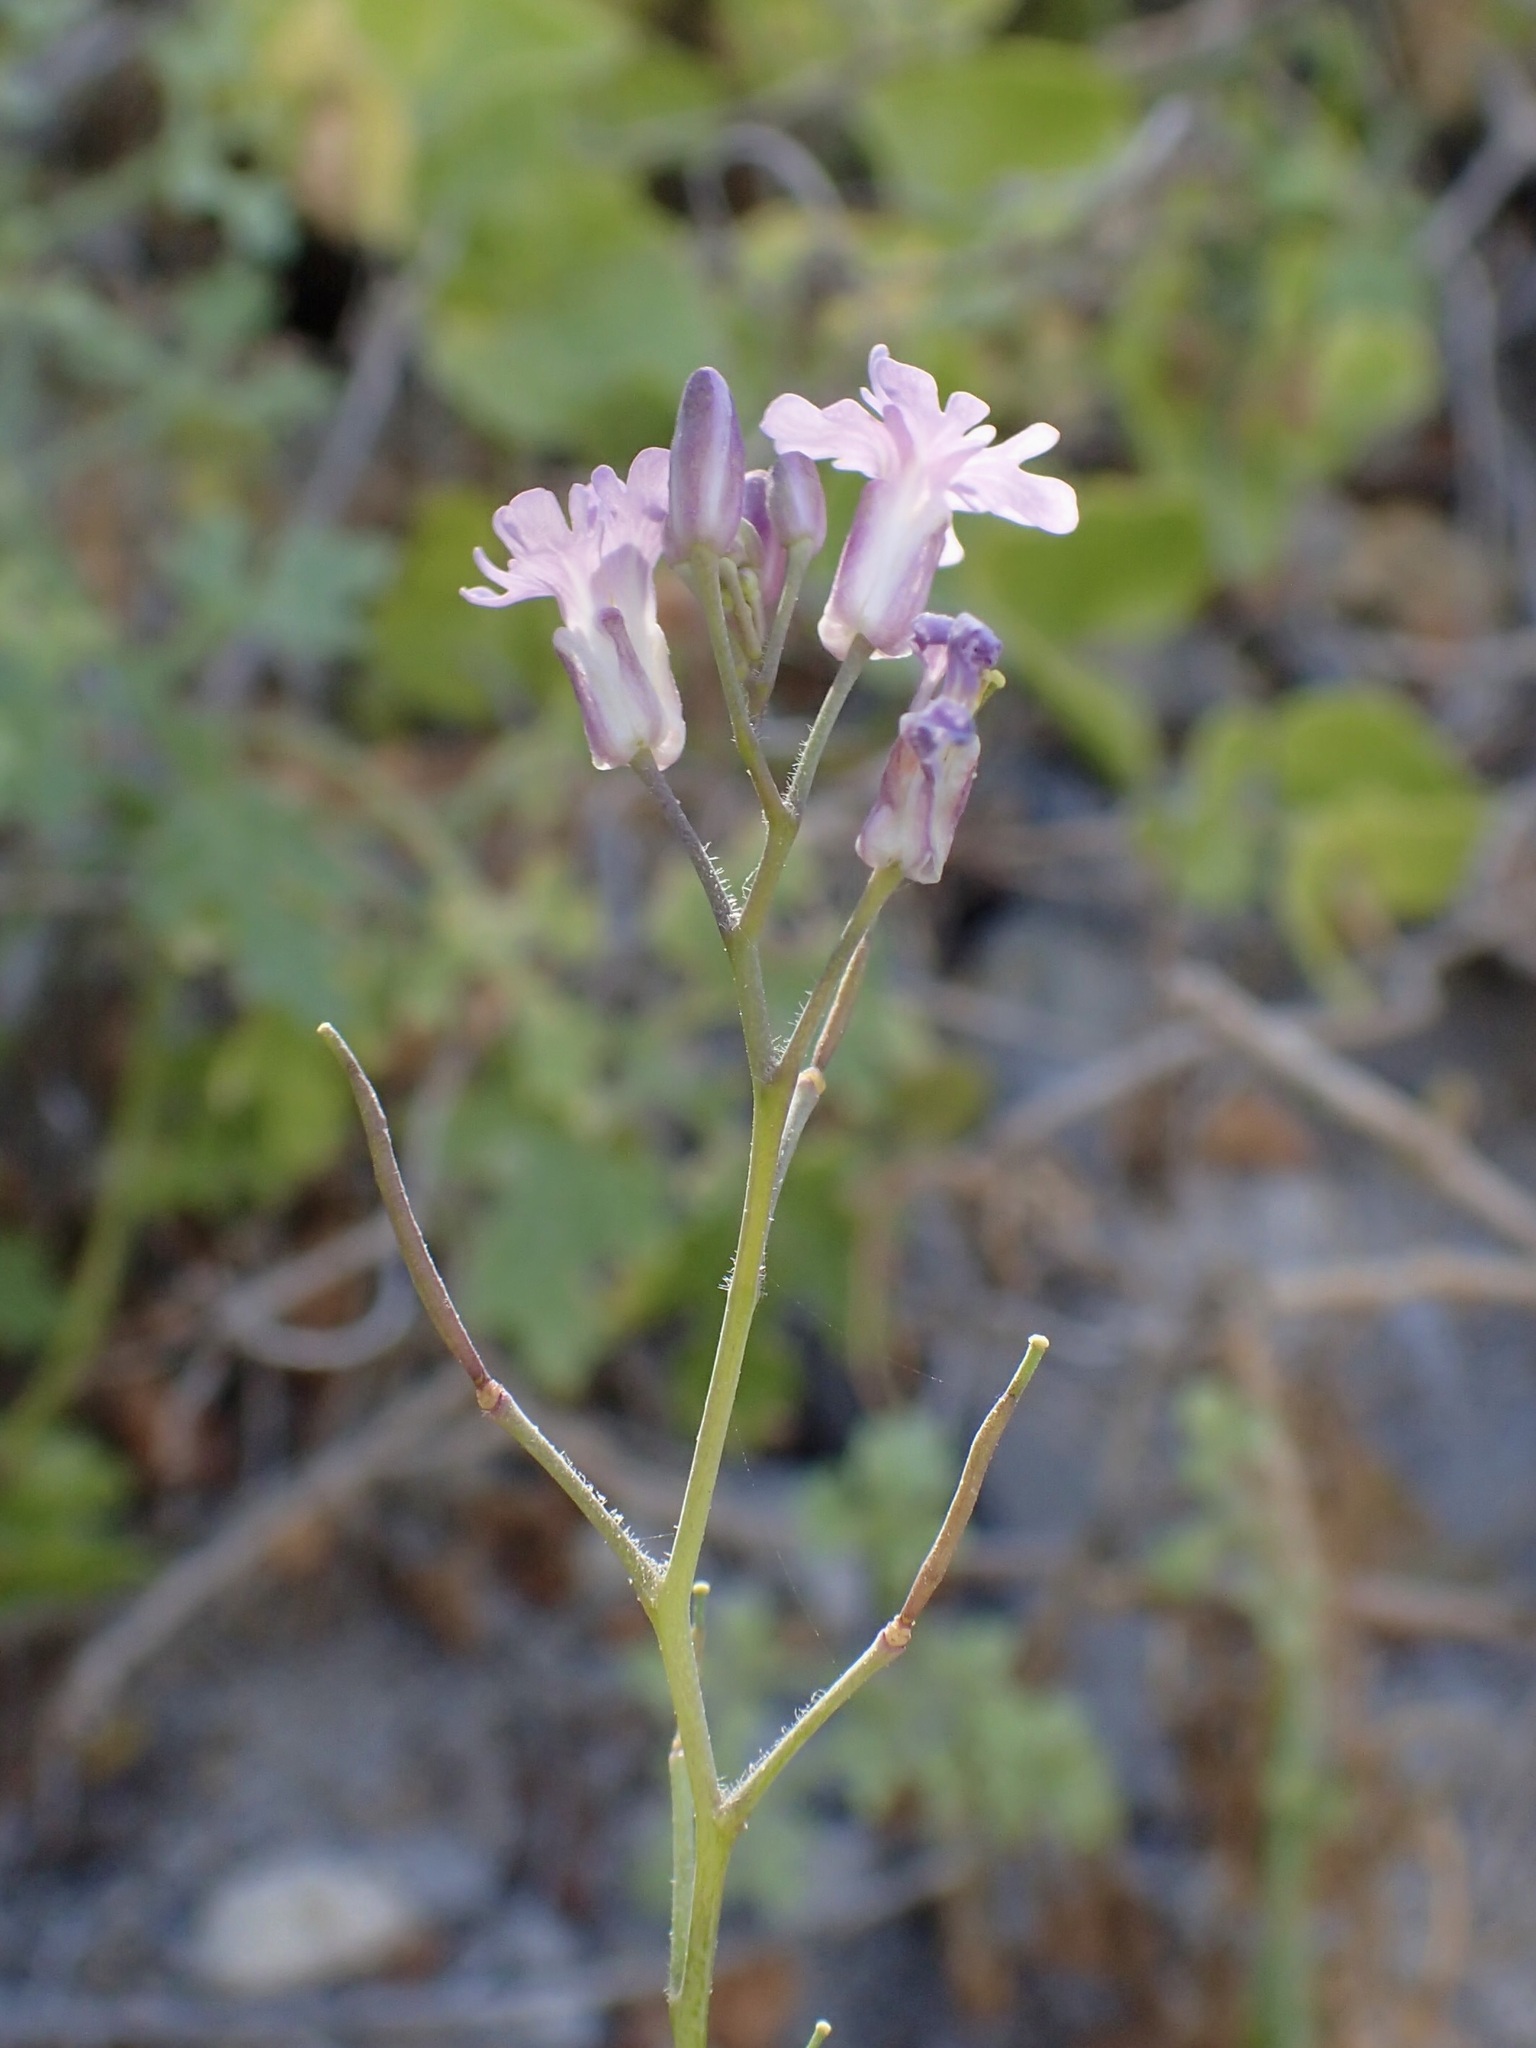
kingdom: Plantae
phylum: Tracheophyta
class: Magnoliopsida
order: Brassicales
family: Brassicaceae
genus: Dryopetalon
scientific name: Dryopetalon palmeri
